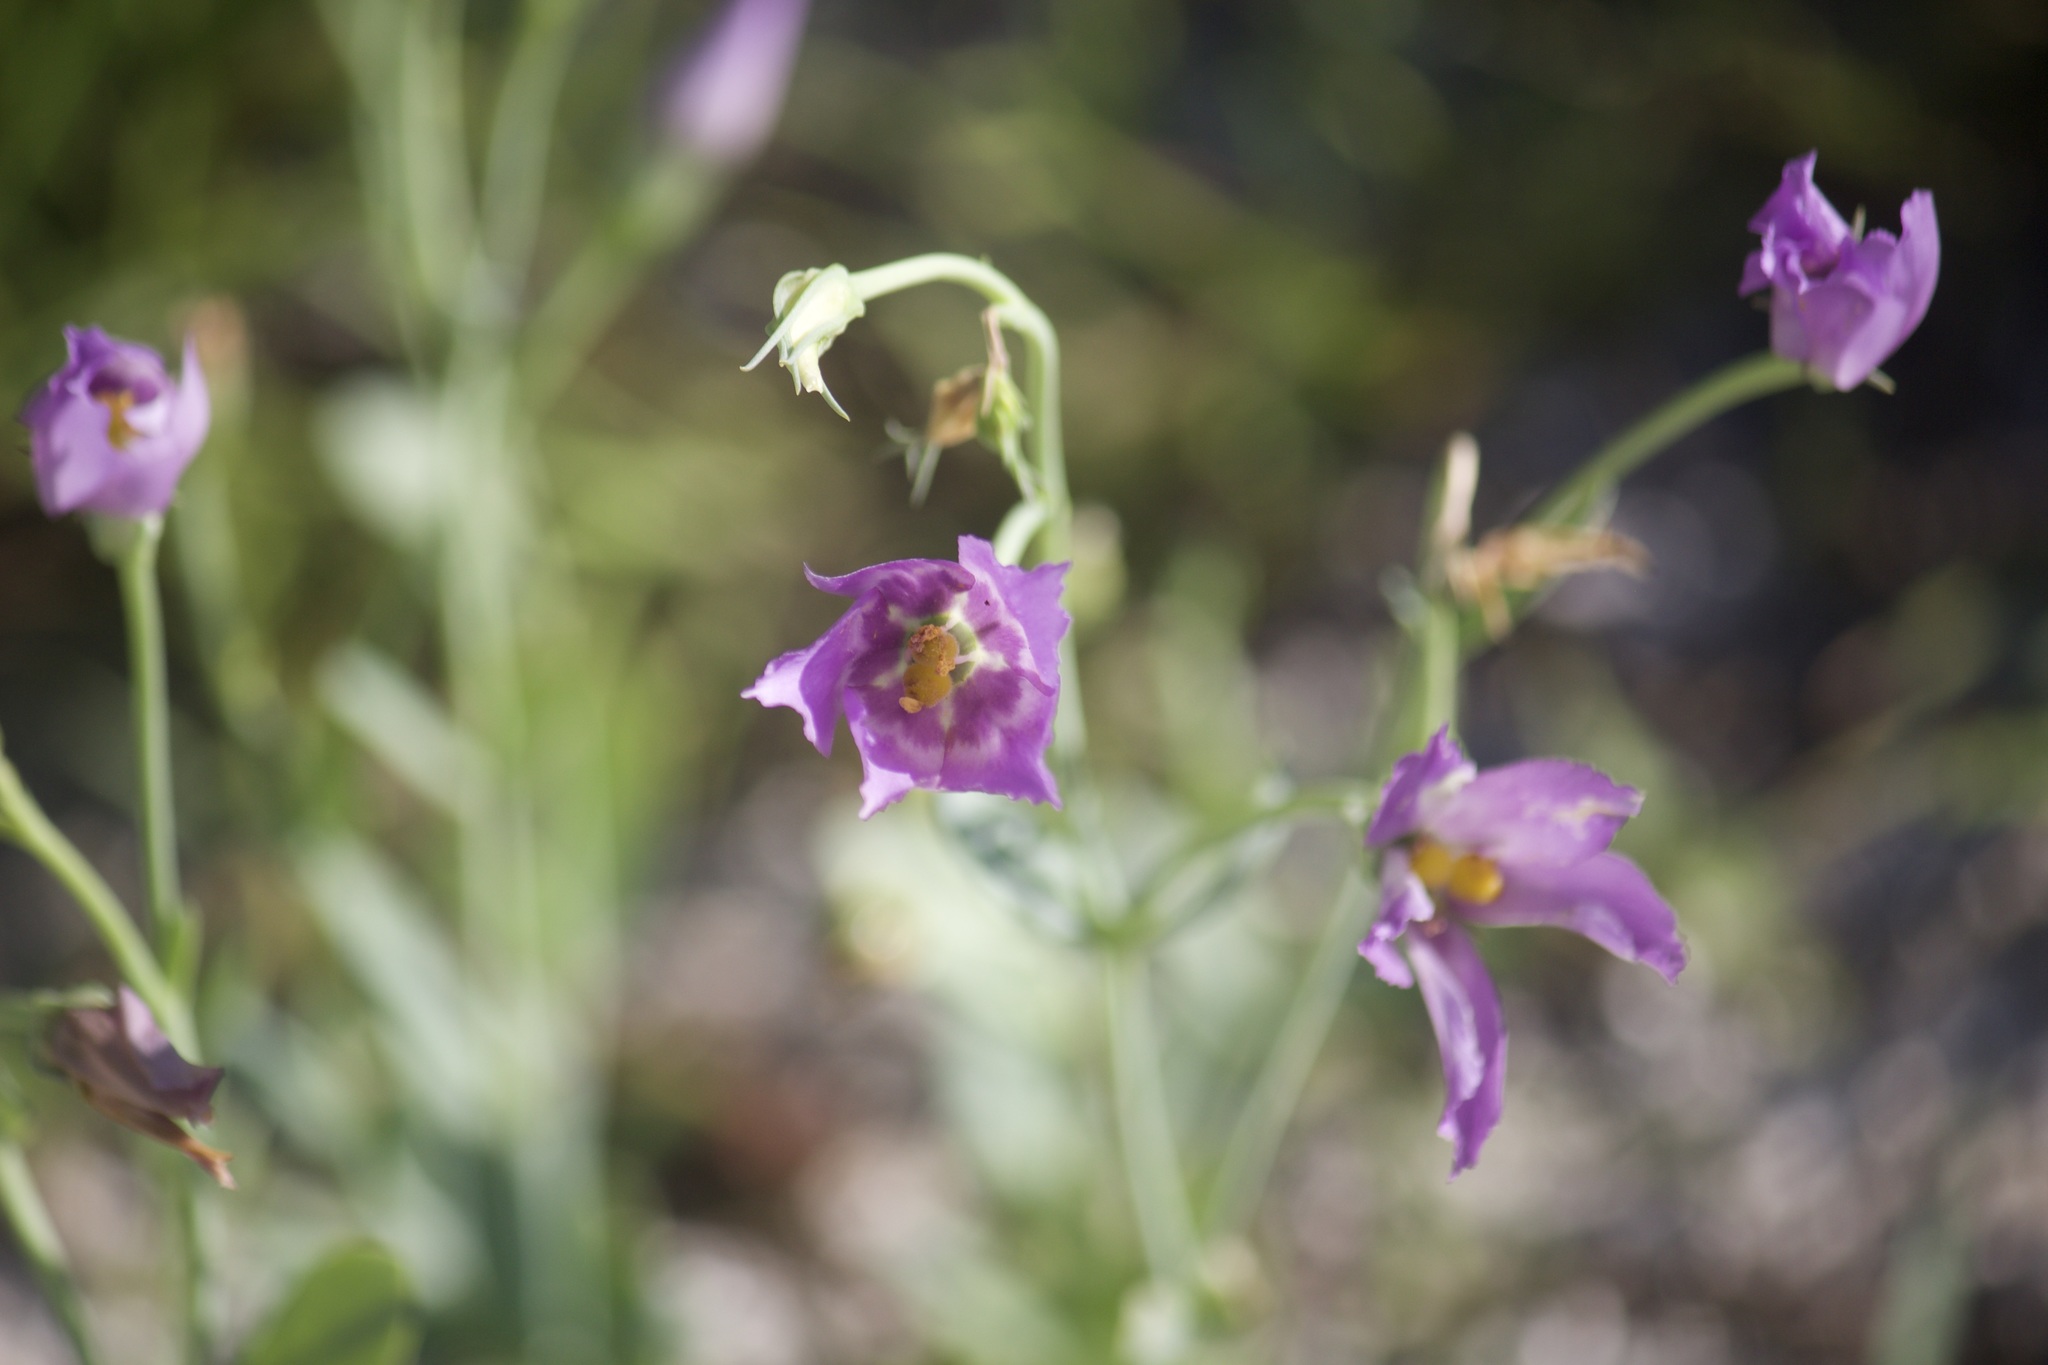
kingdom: Plantae
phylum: Tracheophyta
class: Magnoliopsida
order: Gentianales
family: Gentianaceae
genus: Eustoma
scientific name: Eustoma exaltatum
